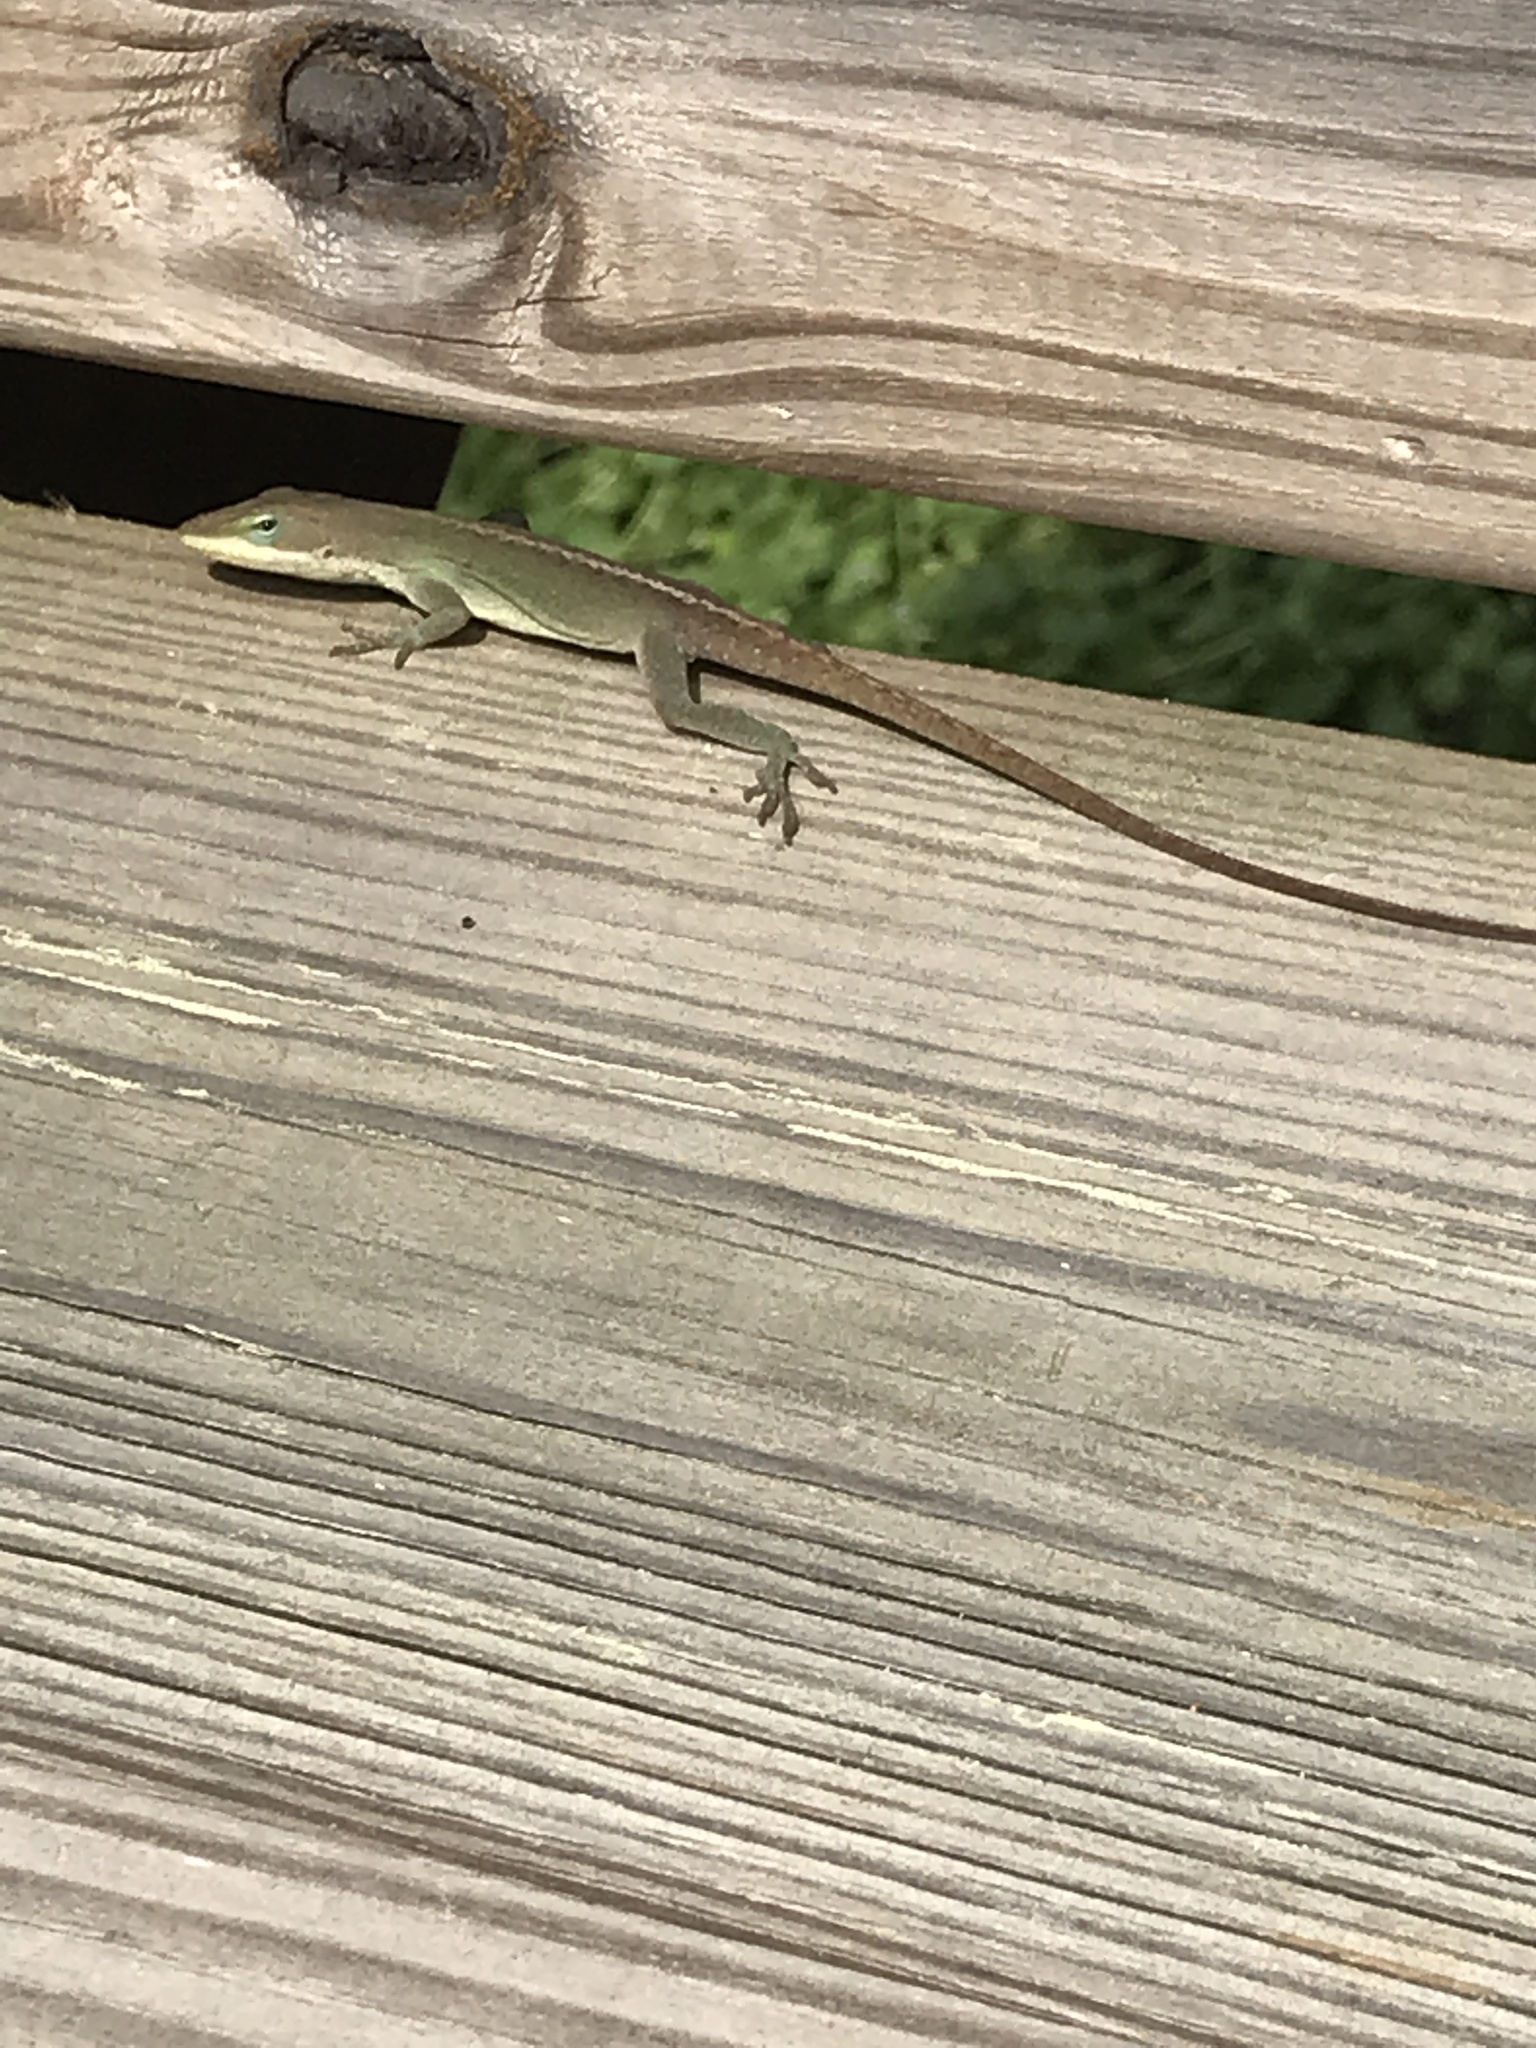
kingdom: Animalia
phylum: Chordata
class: Squamata
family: Dactyloidae
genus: Anolis
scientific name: Anolis carolinensis
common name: Green anole
